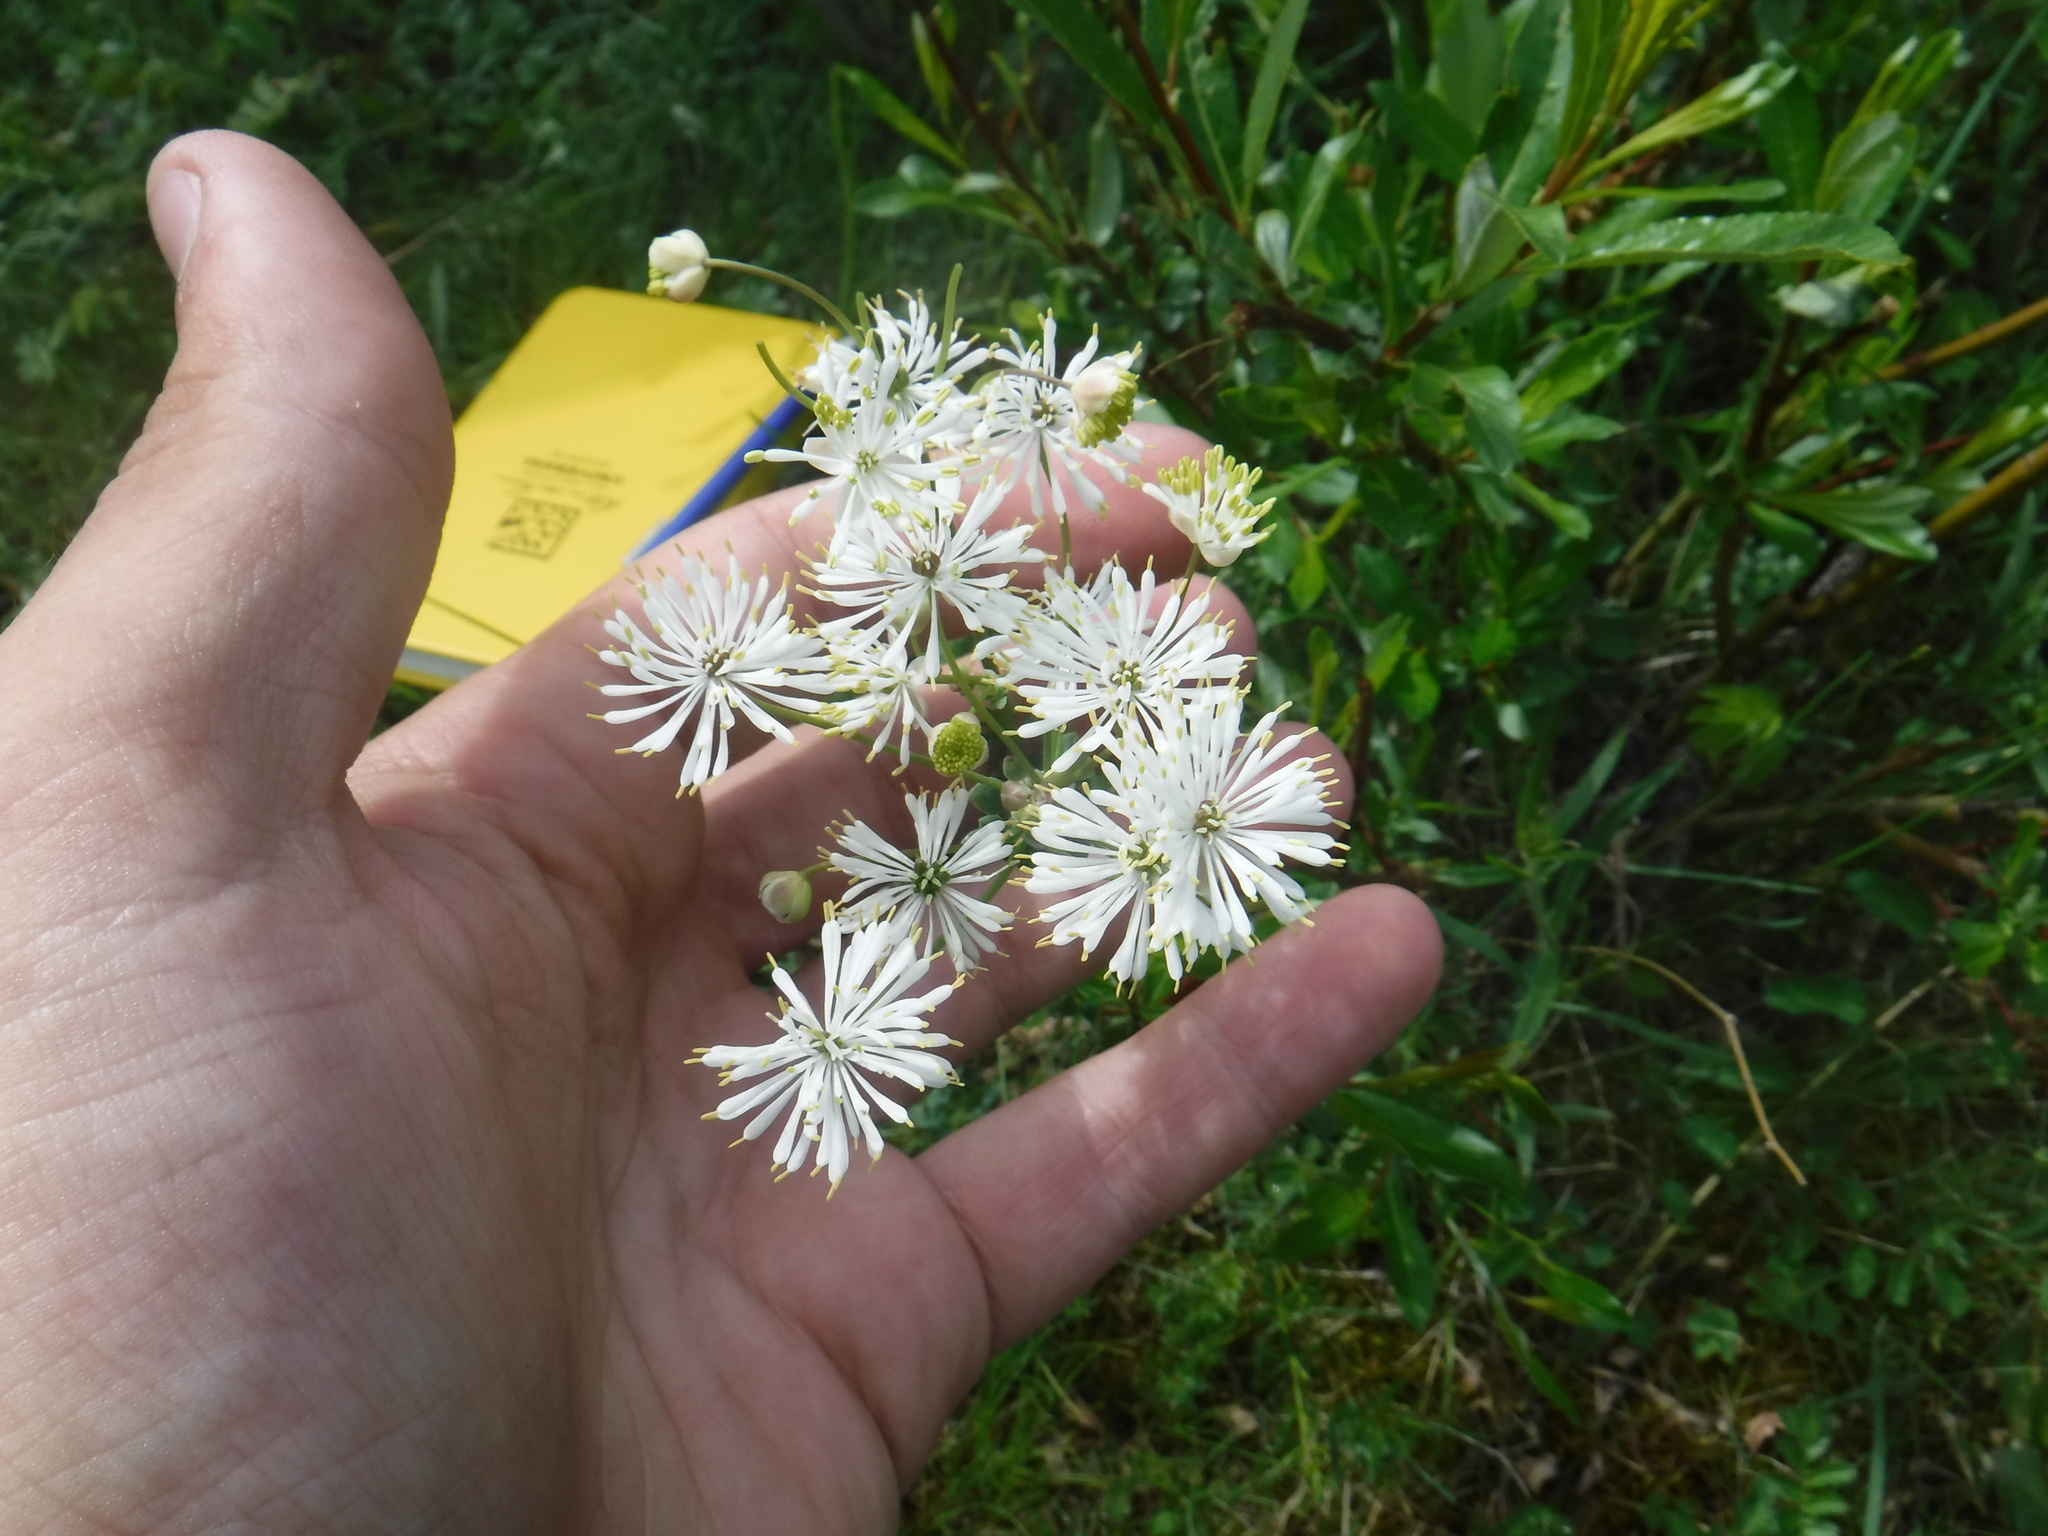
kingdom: Plantae
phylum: Tracheophyta
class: Magnoliopsida
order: Ranunculales
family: Ranunculaceae
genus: Thalictrum
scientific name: Thalictrum petaloideum
